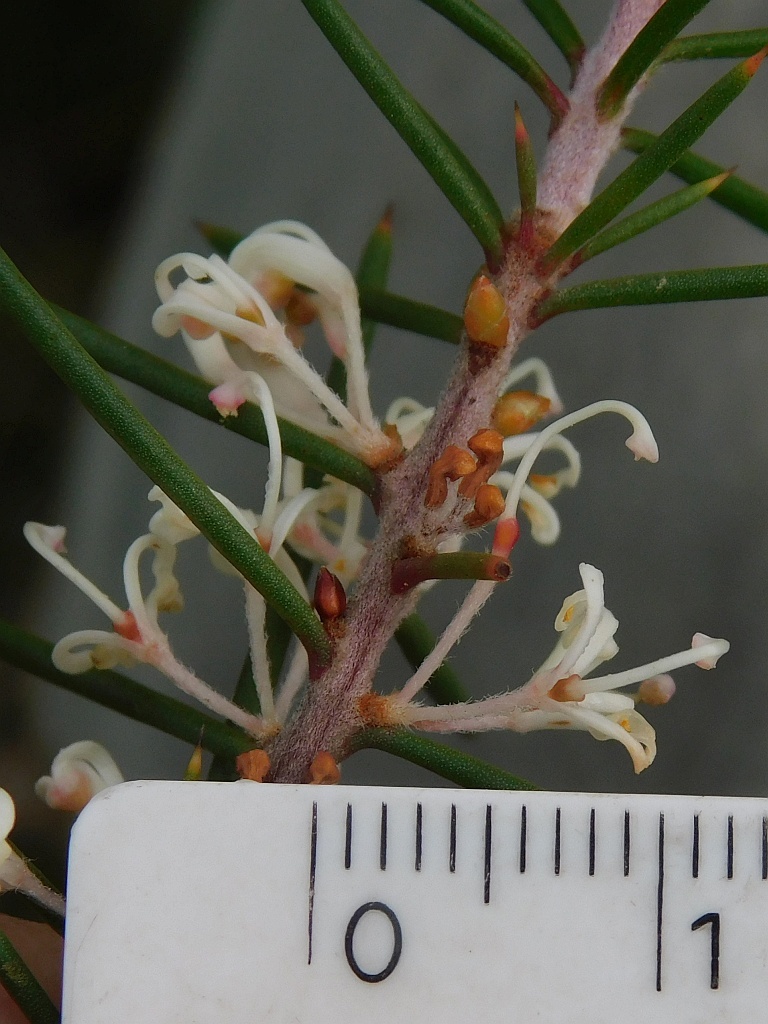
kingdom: Plantae
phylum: Tracheophyta
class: Magnoliopsida
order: Proteales
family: Proteaceae
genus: Hakea
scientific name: Hakea sericea
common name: Needle bush
